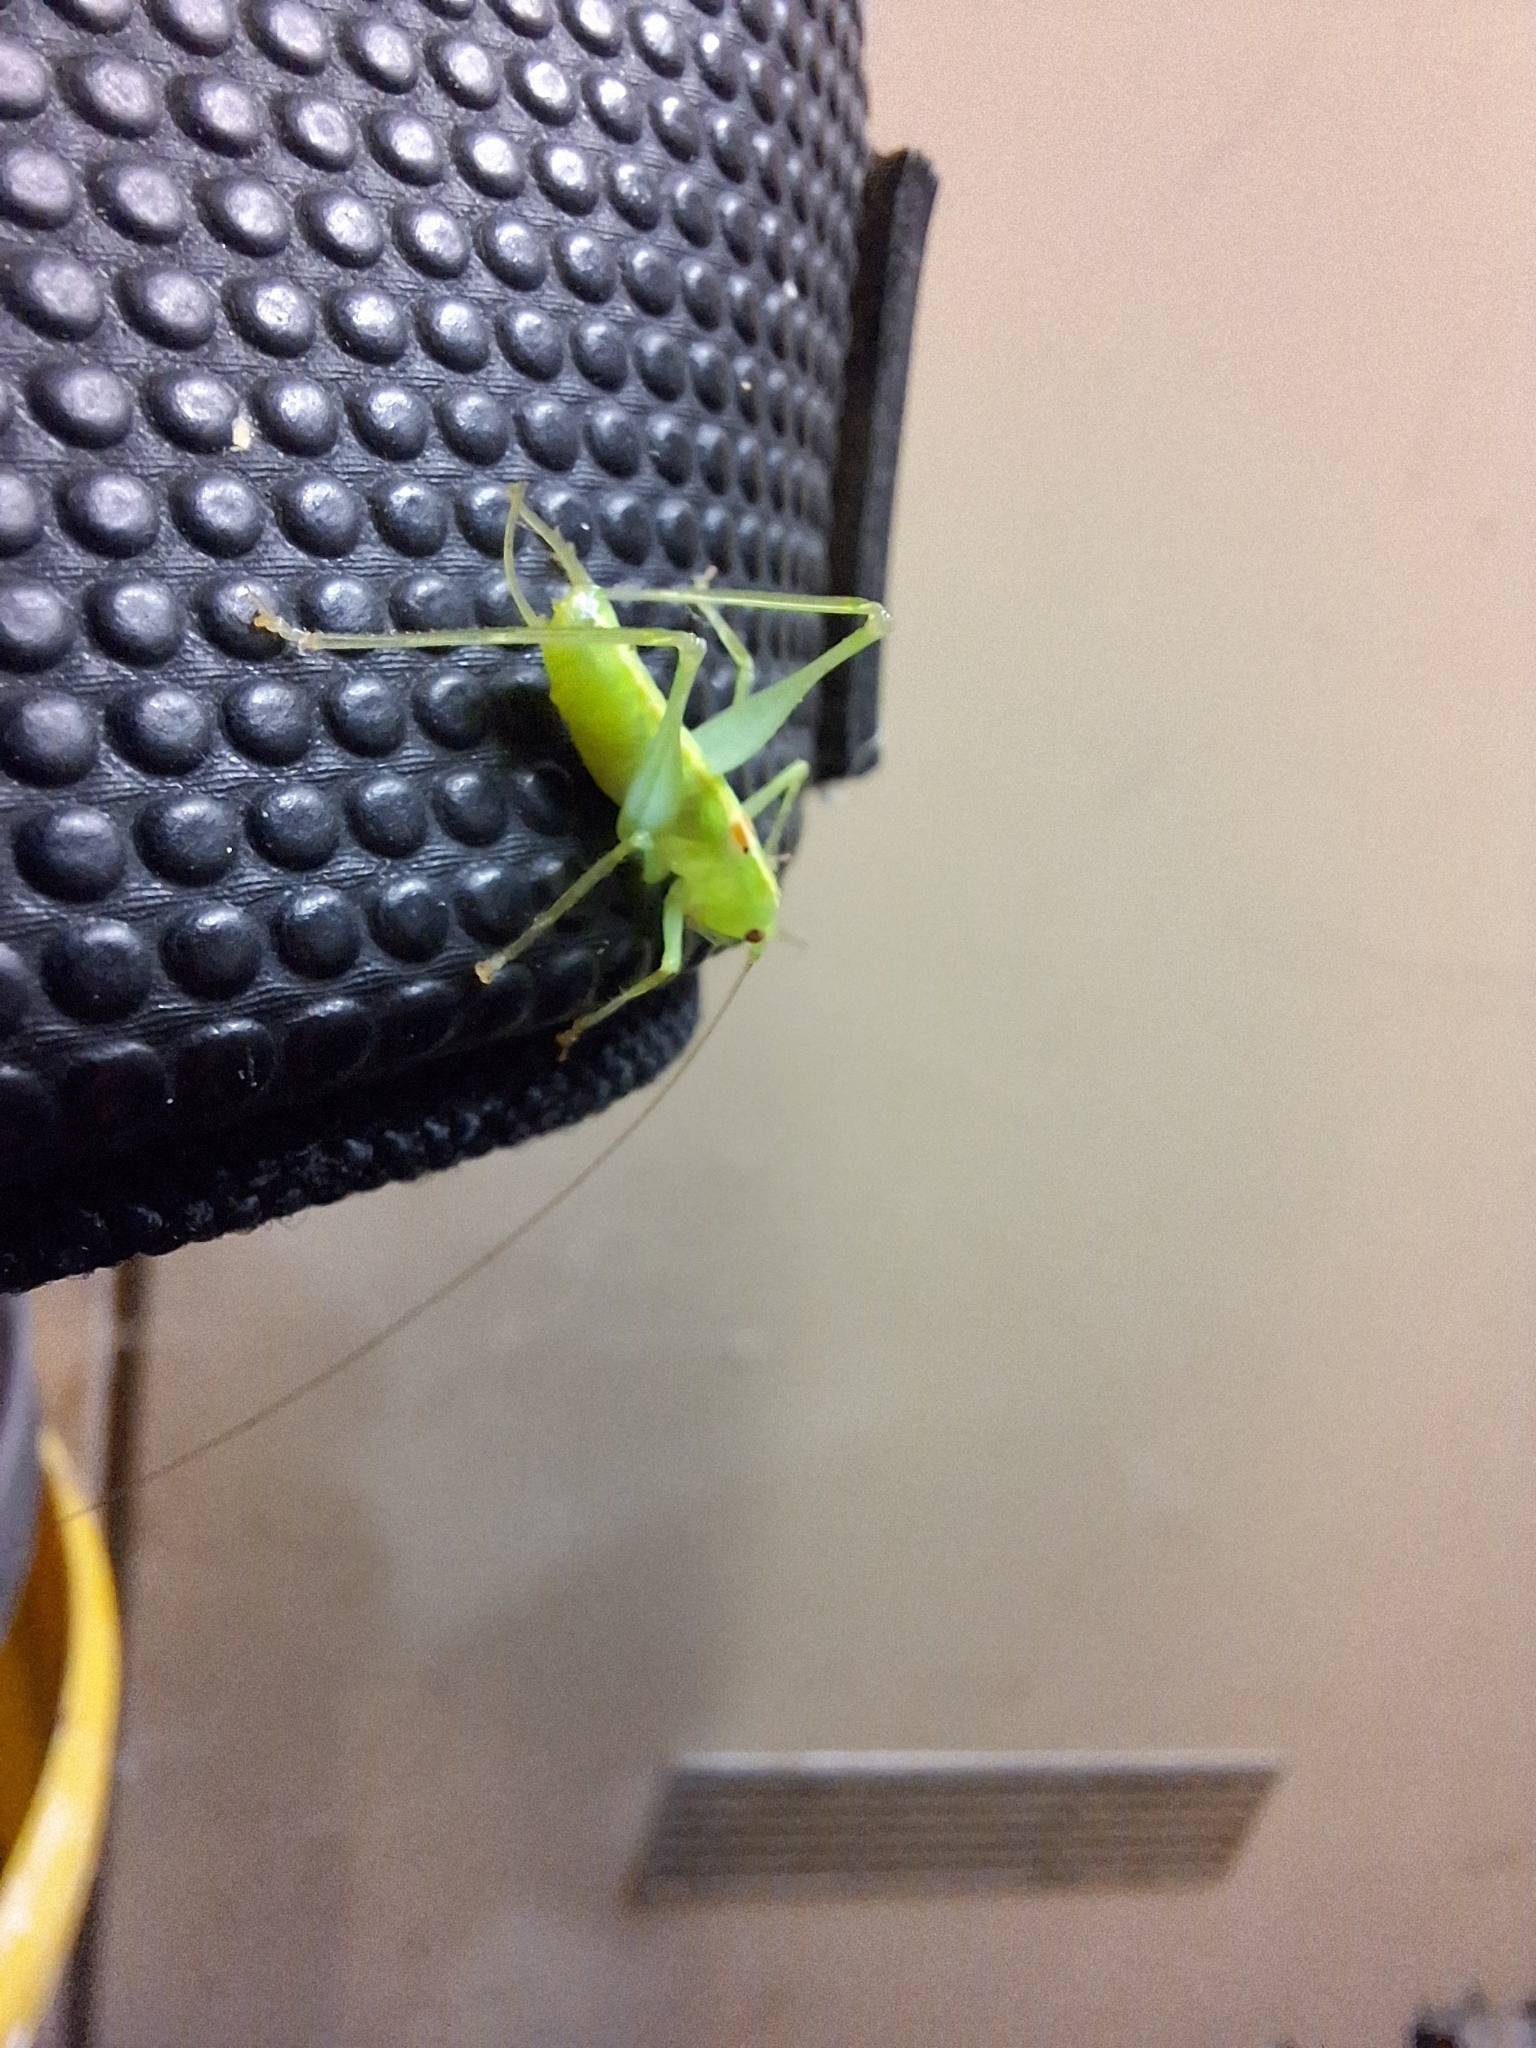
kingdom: Animalia
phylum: Arthropoda
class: Insecta
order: Orthoptera
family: Tettigoniidae
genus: Meconema
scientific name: Meconema meridionale
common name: Southern oak bush-cricket
